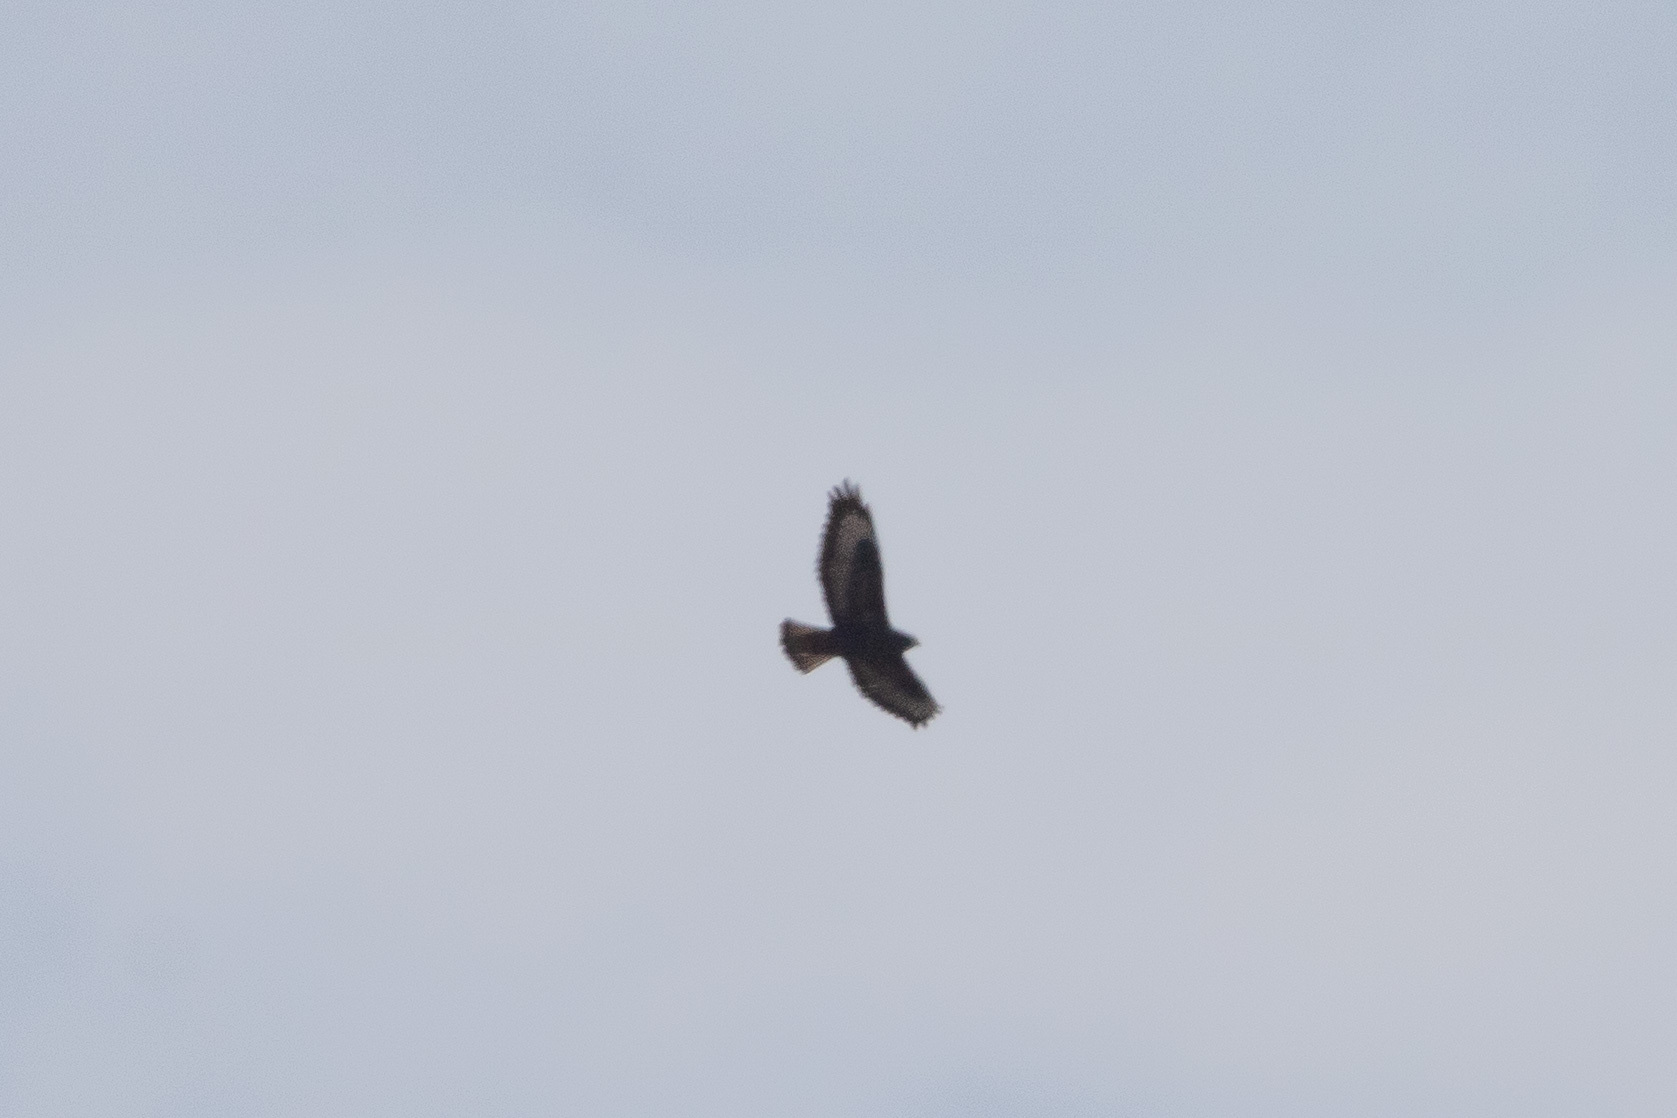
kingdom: Animalia
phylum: Chordata
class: Aves
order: Accipitriformes
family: Accipitridae
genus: Buteo
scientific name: Buteo buteo
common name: Common buzzard
